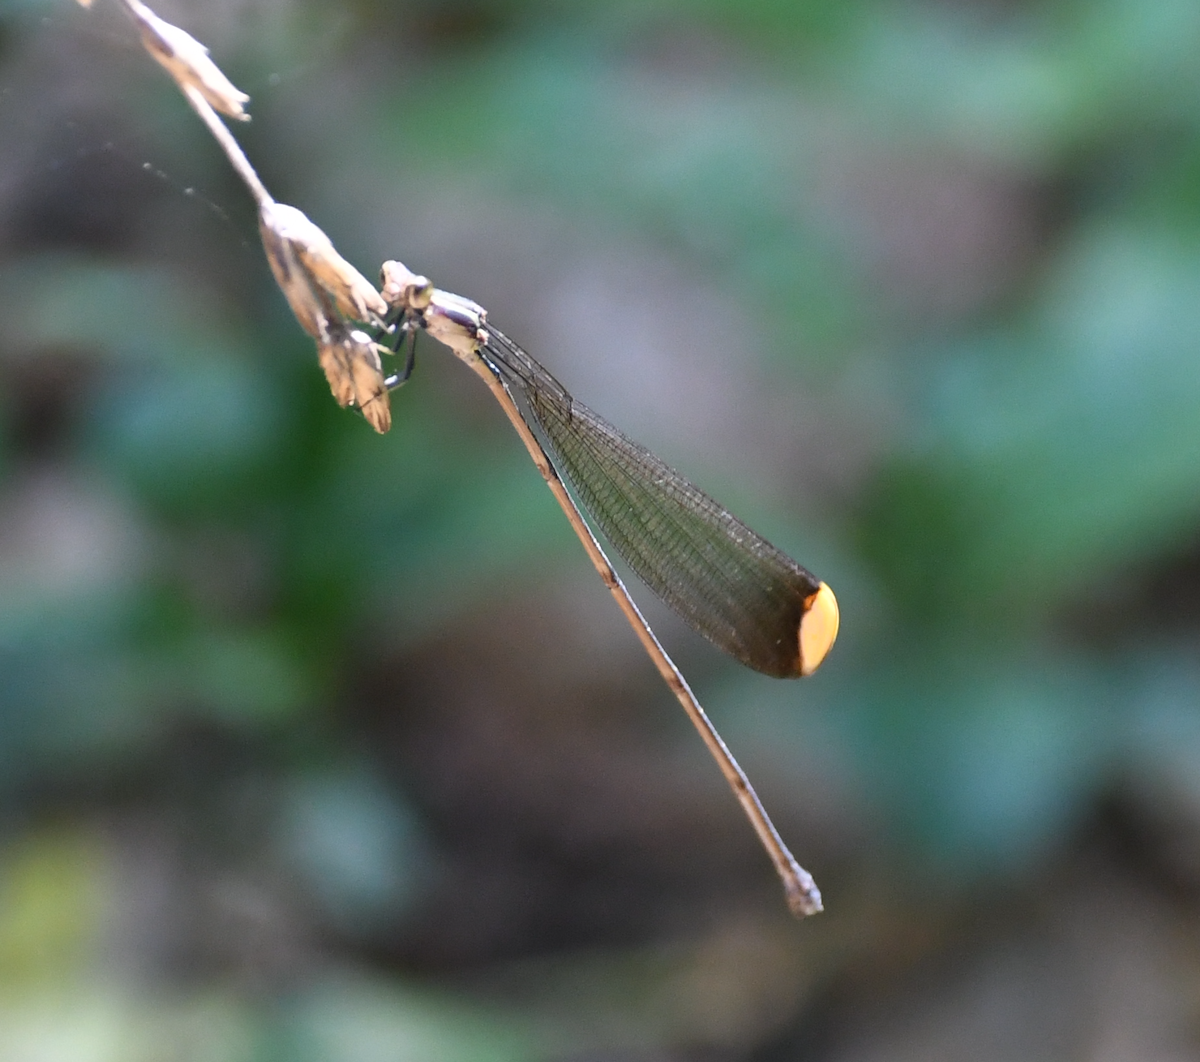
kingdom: Animalia
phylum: Arthropoda
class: Insecta
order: Odonata
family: Coenagrionidae
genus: Mecistogaster
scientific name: Mecistogaster ornata
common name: Ornate helicopter
